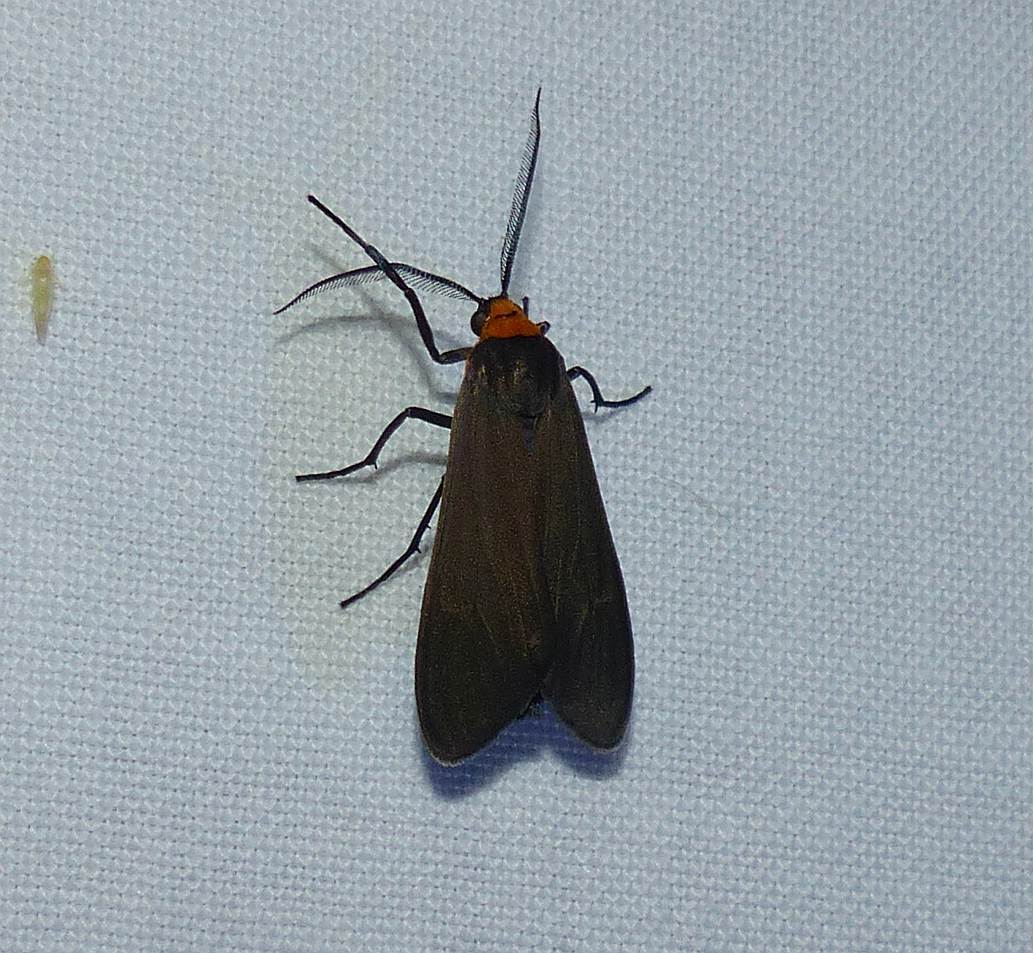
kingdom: Animalia
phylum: Arthropoda
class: Insecta
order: Lepidoptera
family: Erebidae
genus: Cisseps
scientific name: Cisseps fulvicollis
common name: Yellow-collared scape moth
